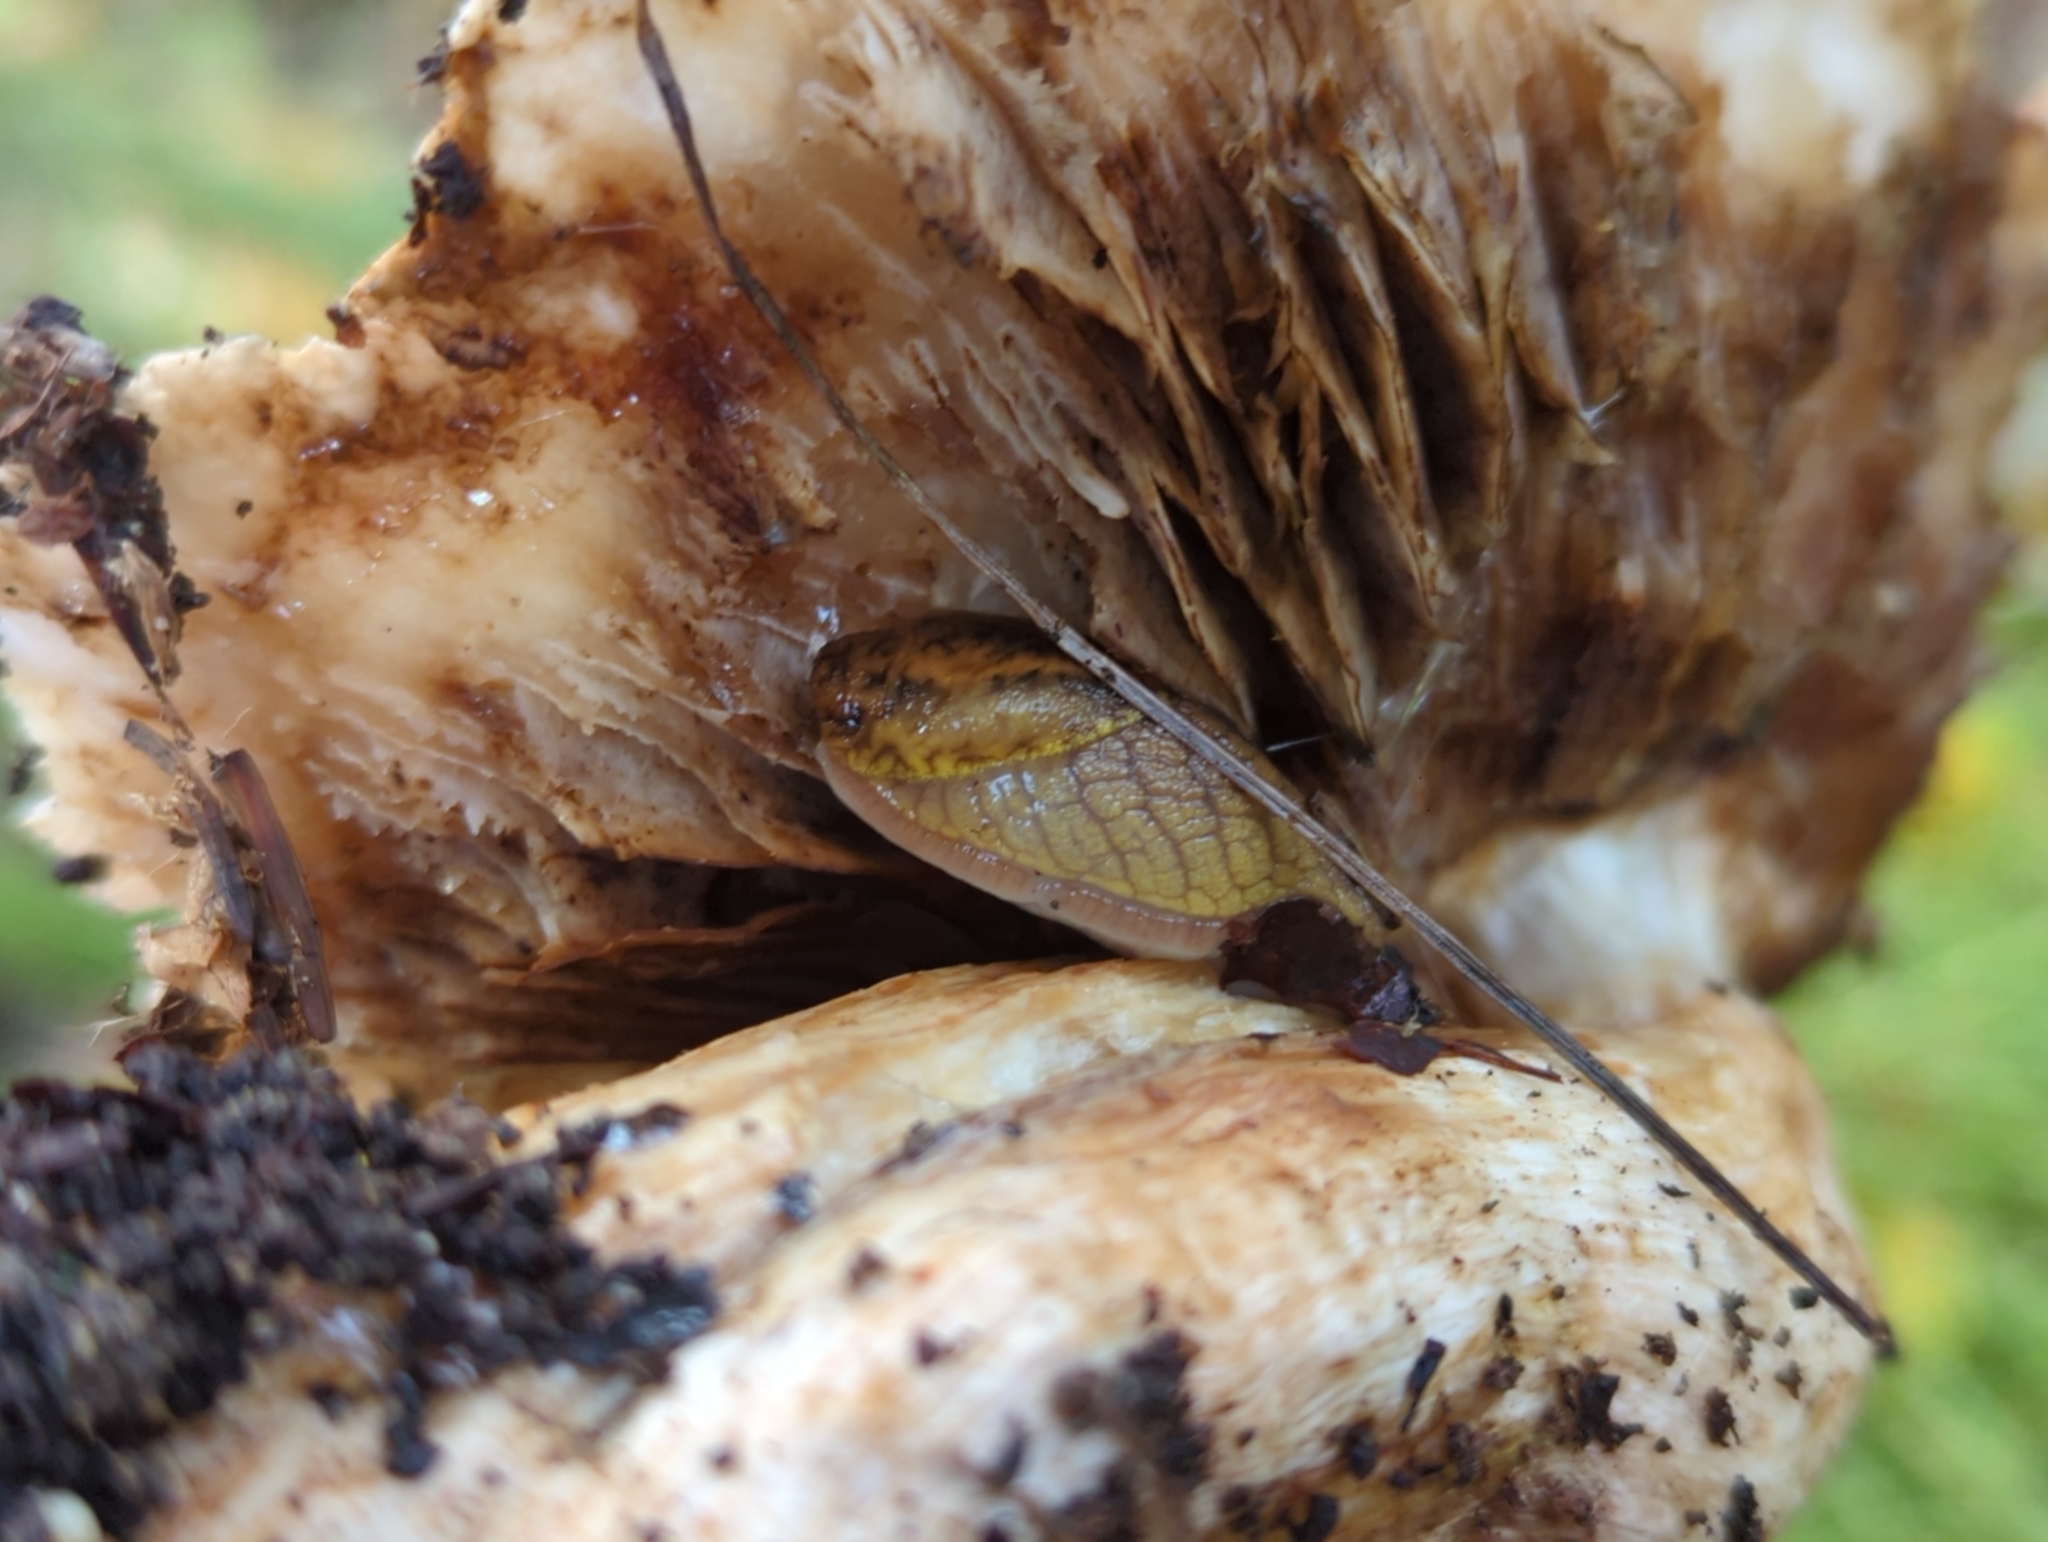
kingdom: Animalia
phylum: Mollusca
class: Gastropoda
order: Stylommatophora
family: Ariolimacidae
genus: Prophysaon
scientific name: Prophysaon andersonii
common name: Reticulate taildropper
